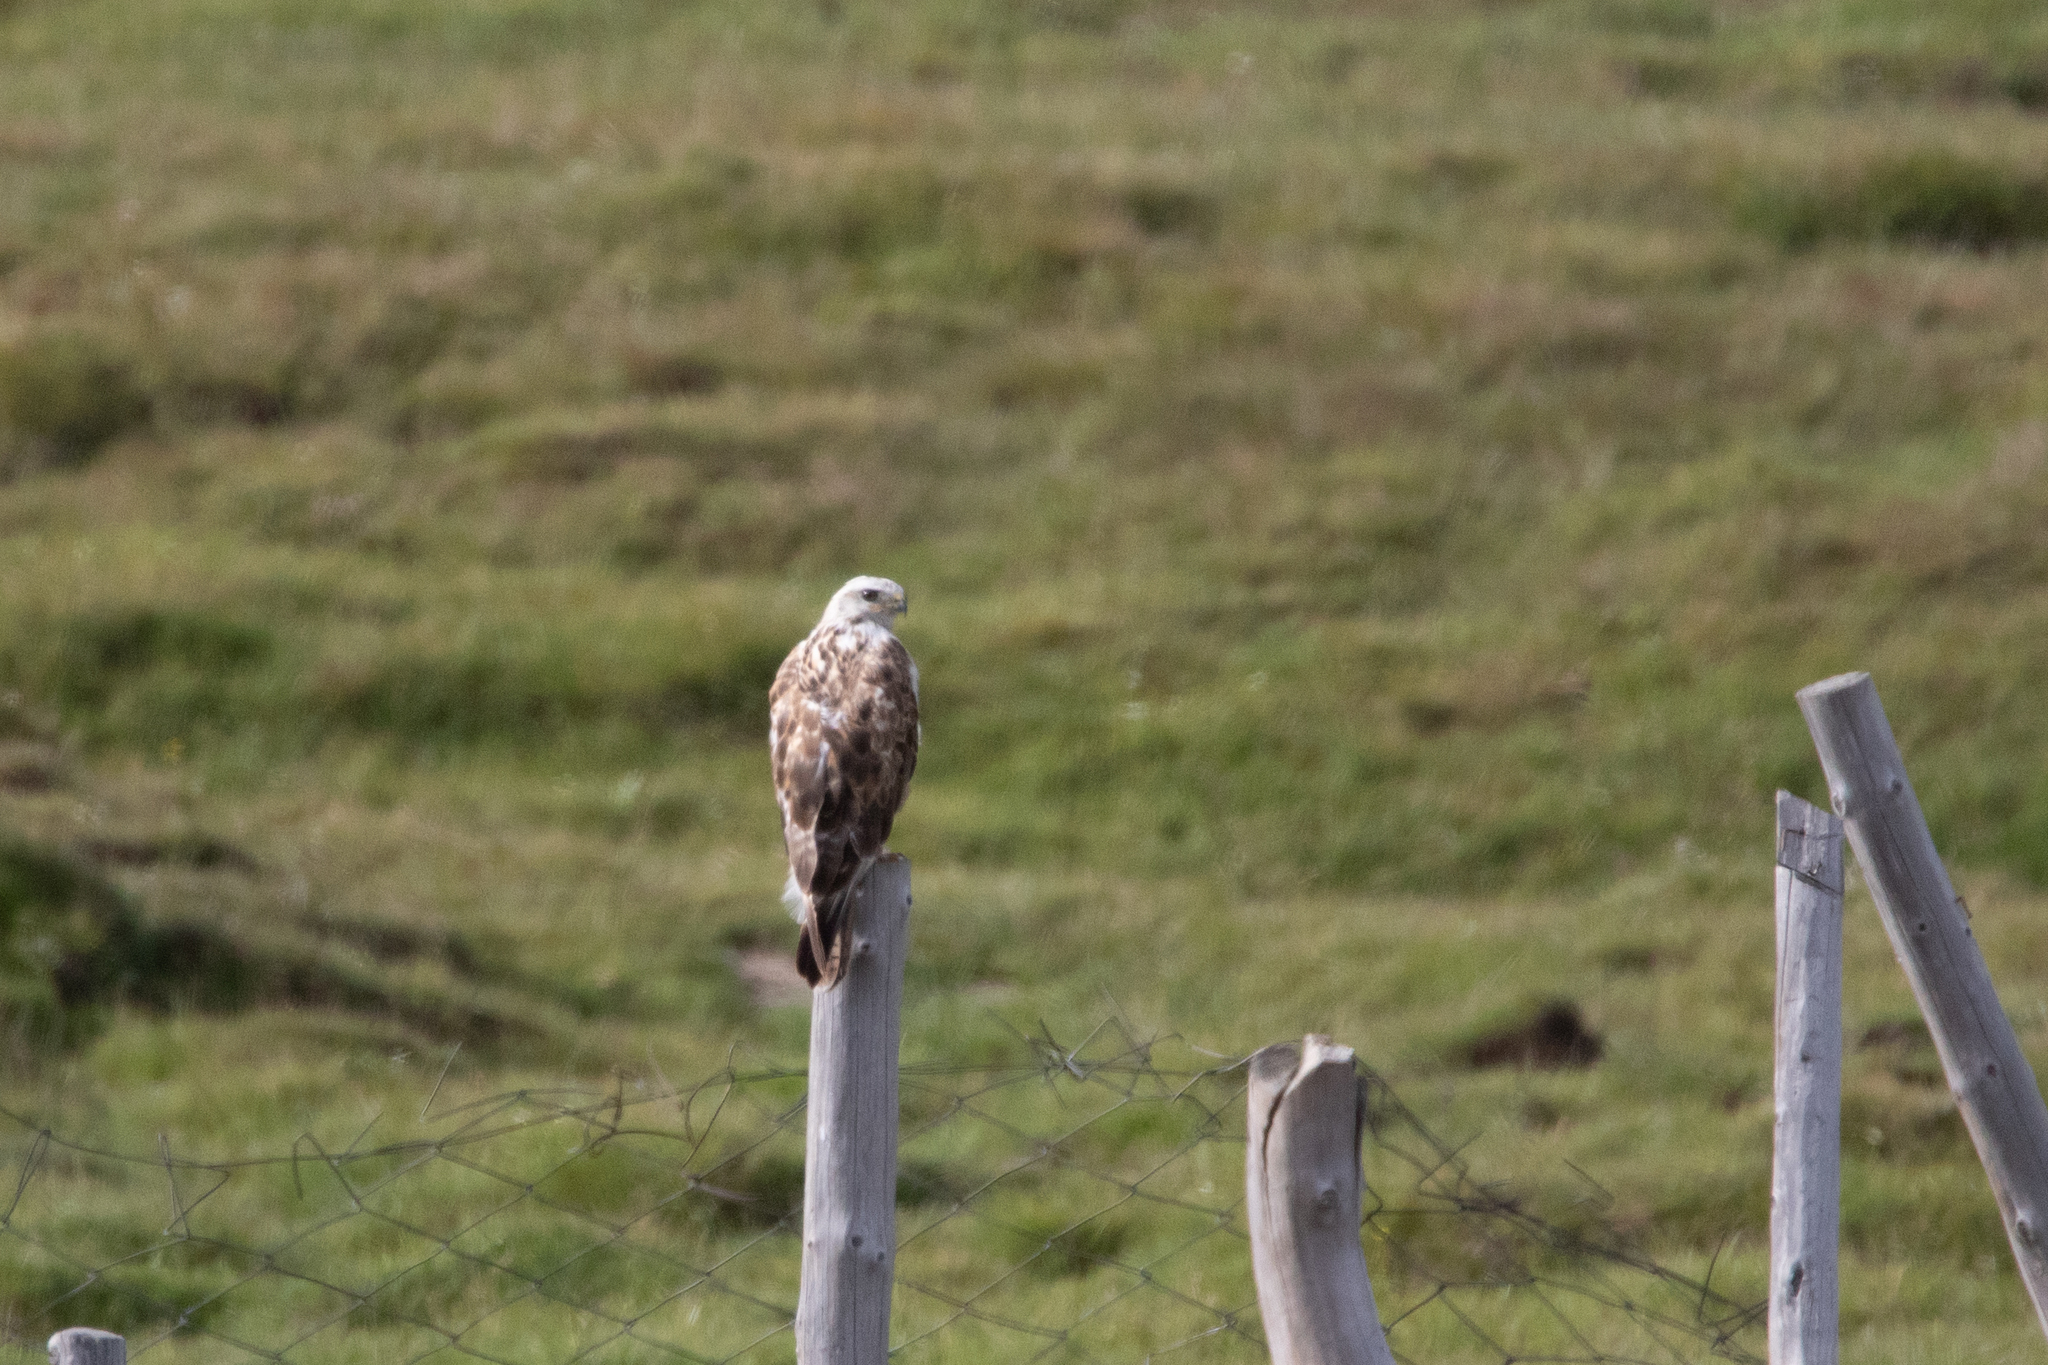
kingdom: Animalia
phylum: Chordata
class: Aves
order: Accipitriformes
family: Accipitridae
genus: Buteo
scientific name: Buteo hemilasius
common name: Upland buzzard
